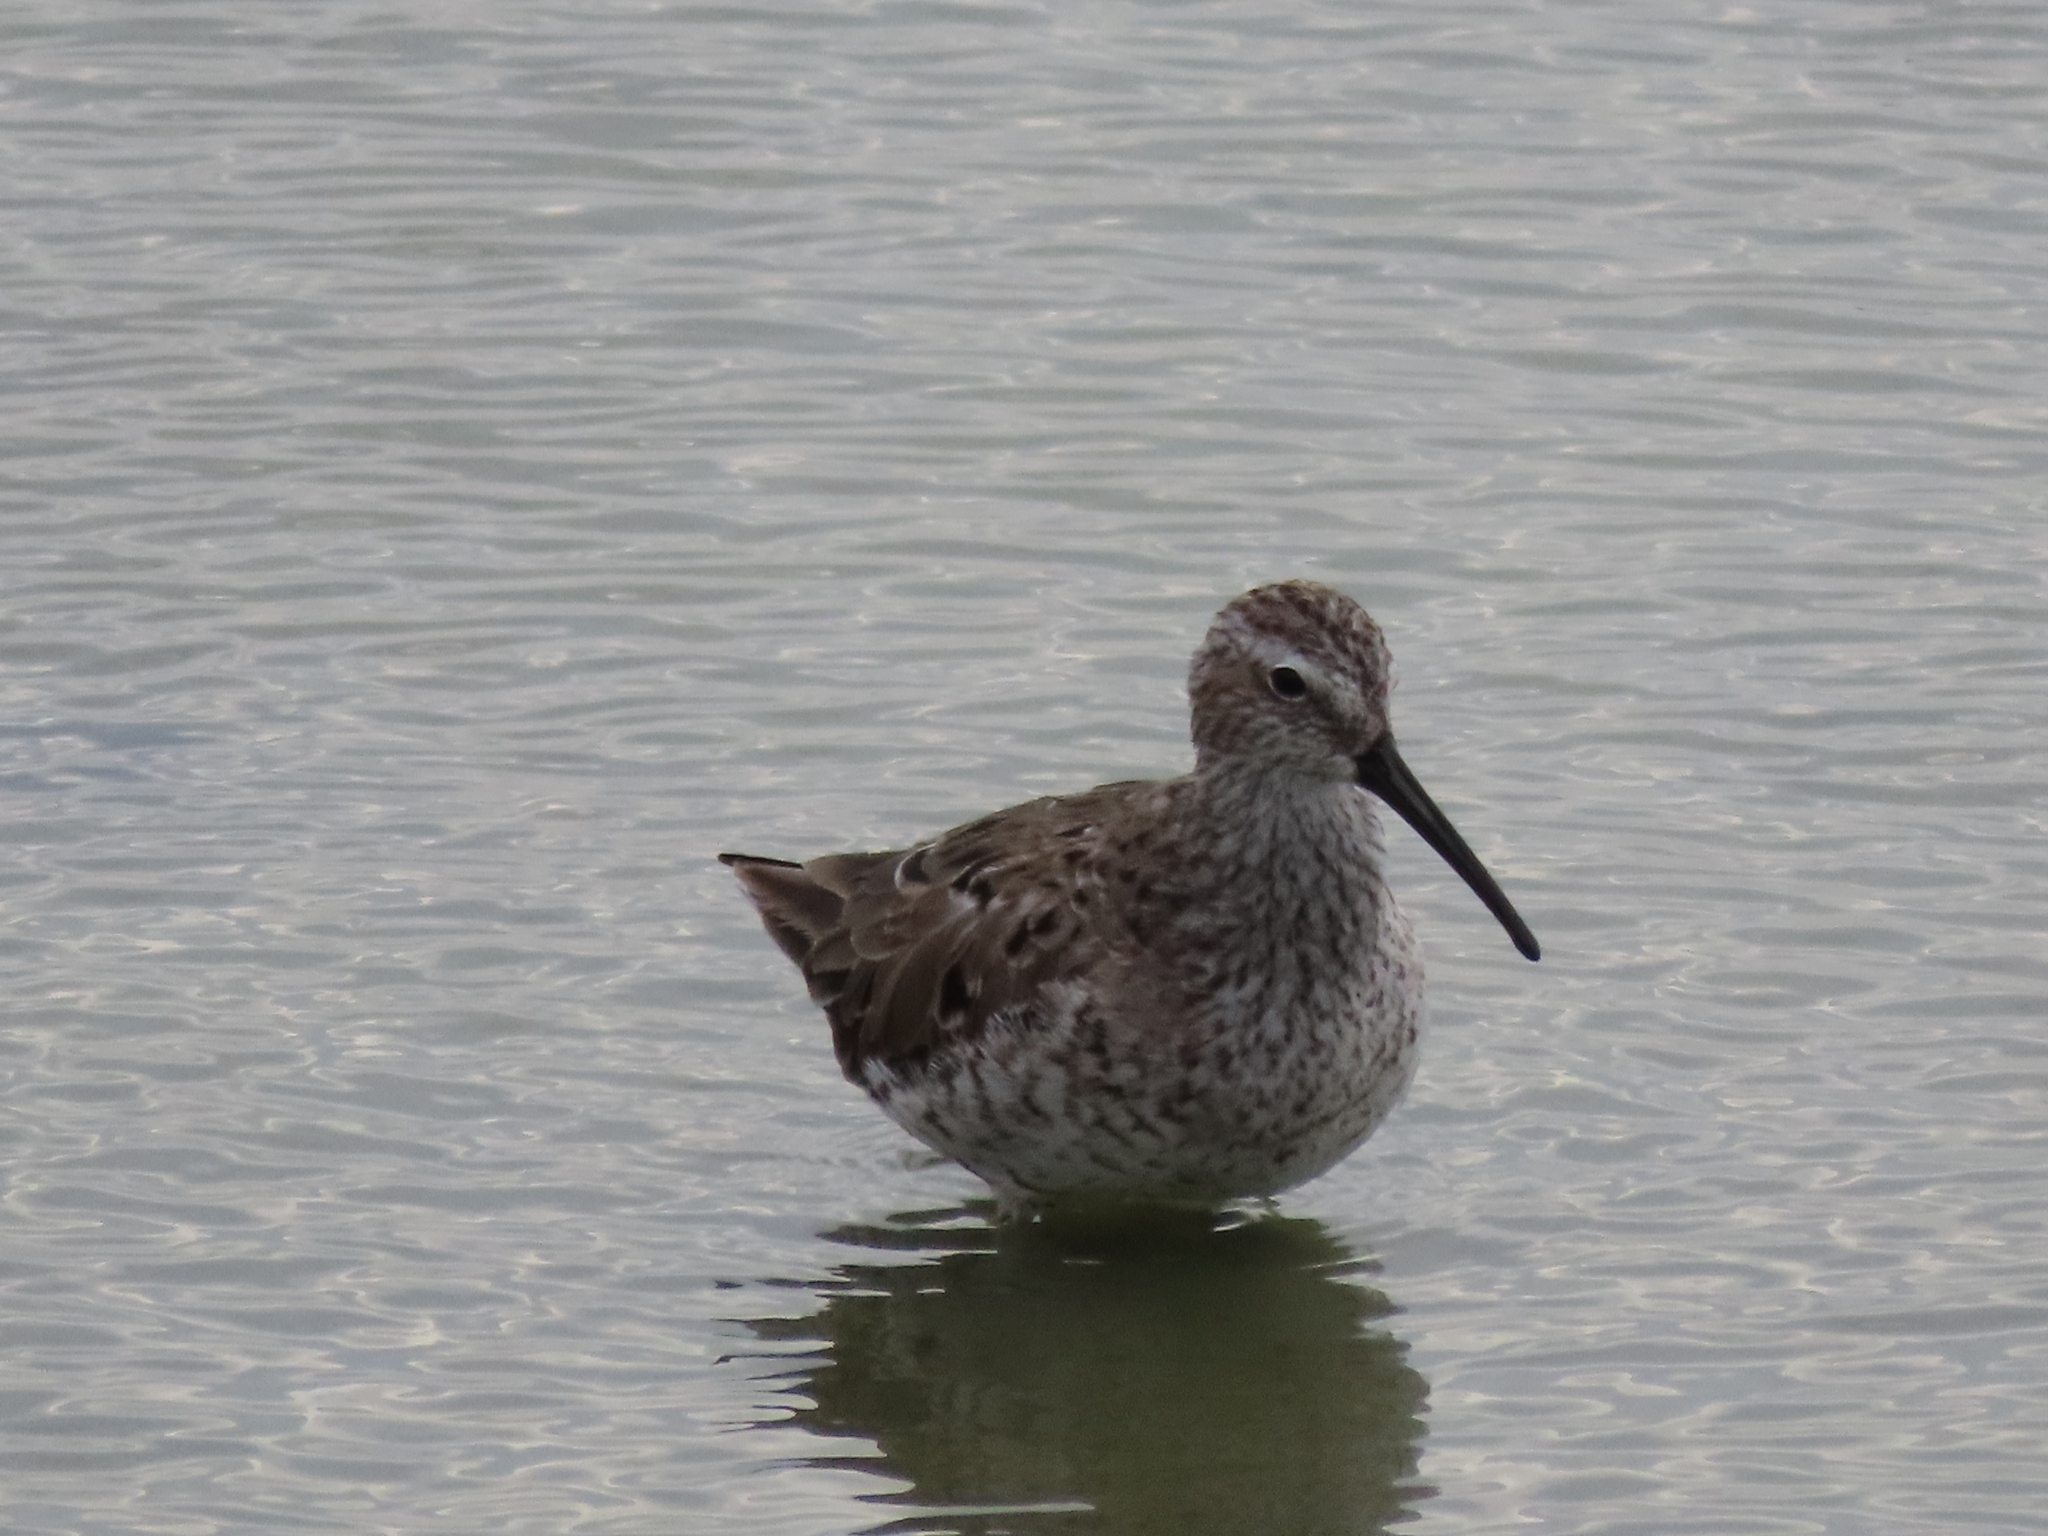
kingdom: Animalia
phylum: Chordata
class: Aves
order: Charadriiformes
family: Scolopacidae
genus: Calidris
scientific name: Calidris himantopus
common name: Stilt sandpiper
